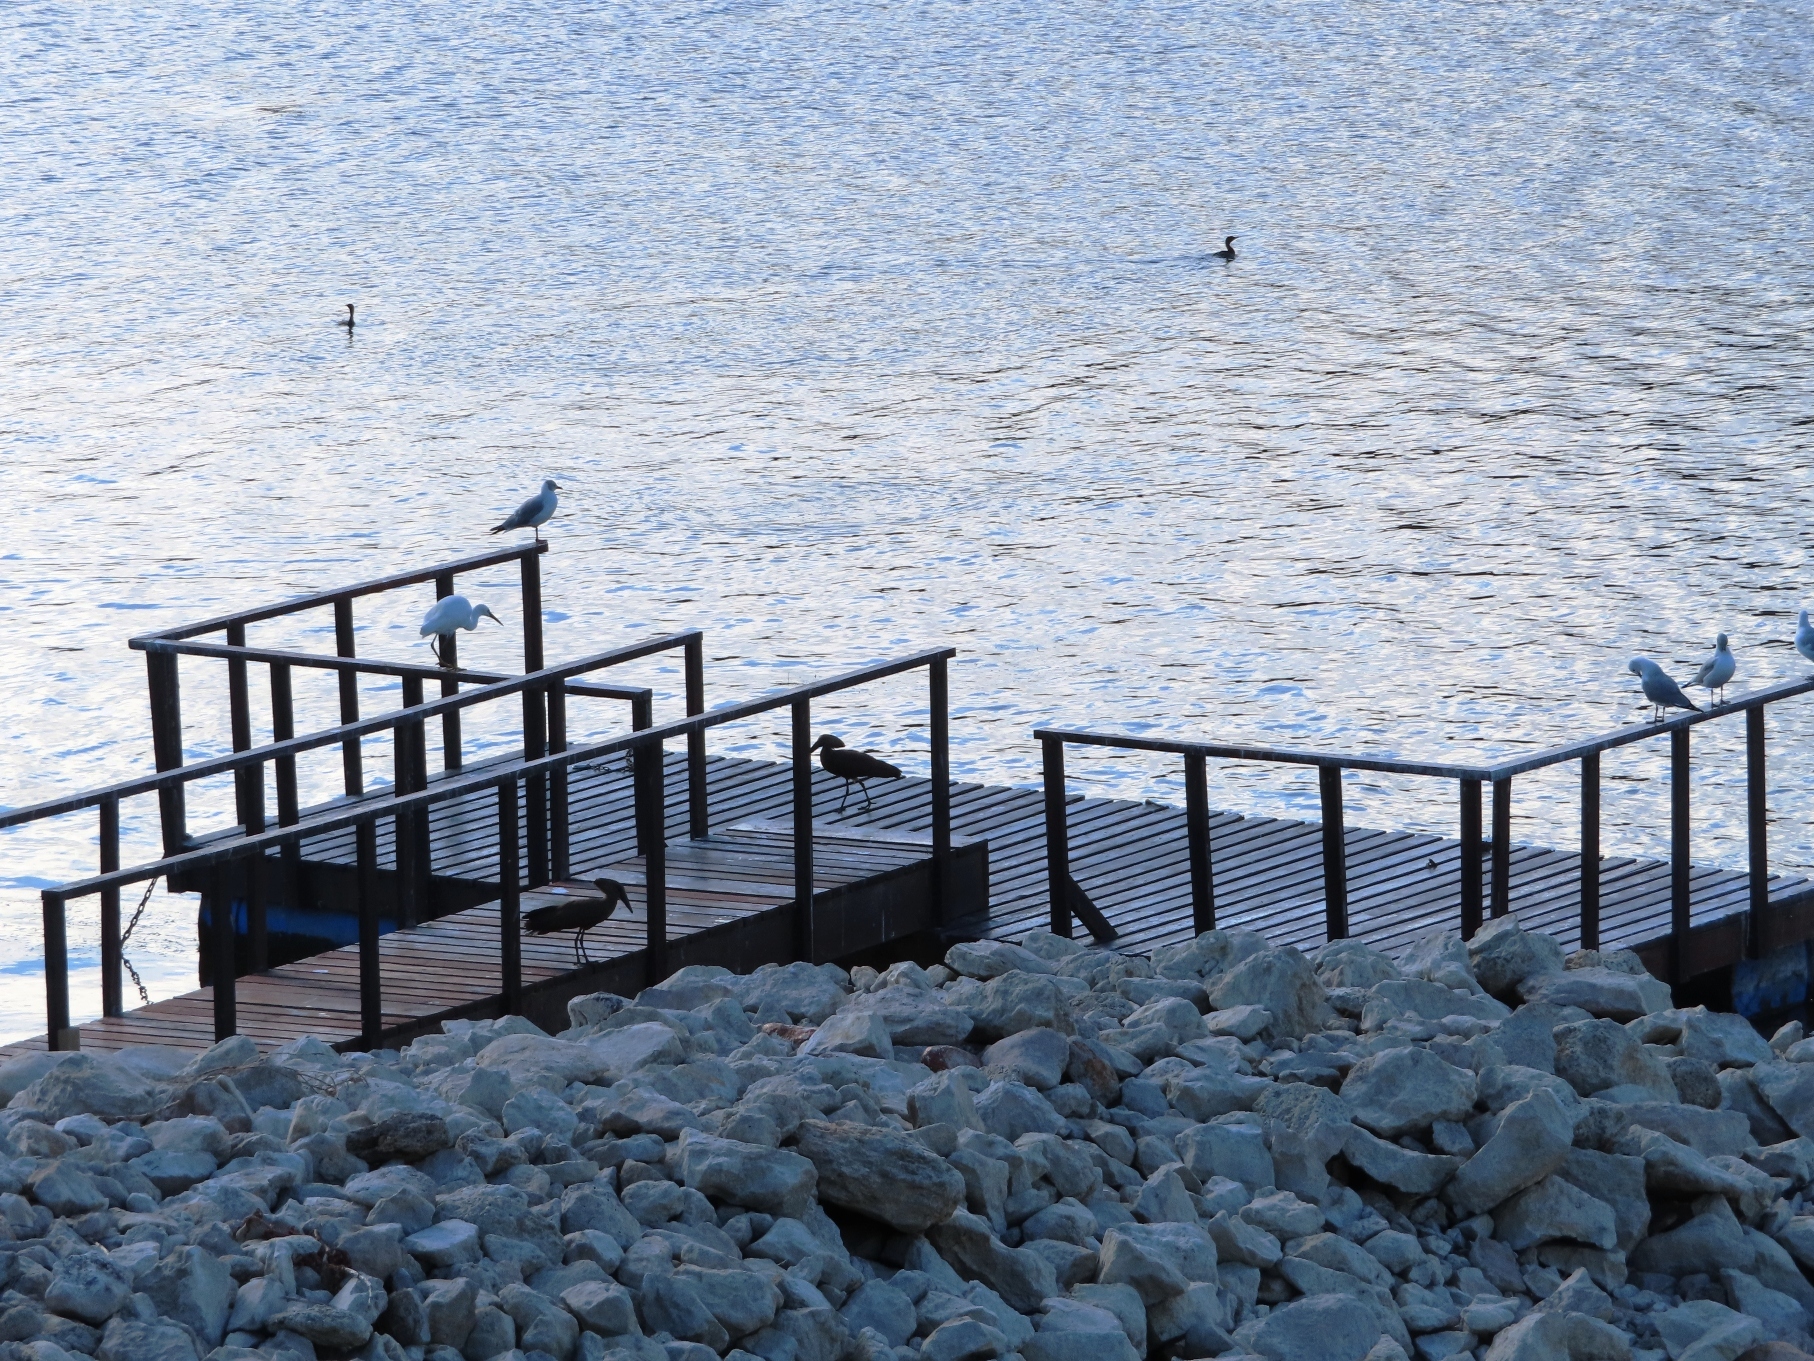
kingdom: Animalia
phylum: Chordata
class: Aves
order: Pelecaniformes
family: Scopidae
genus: Scopus
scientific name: Scopus umbretta
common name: Hamerkop
